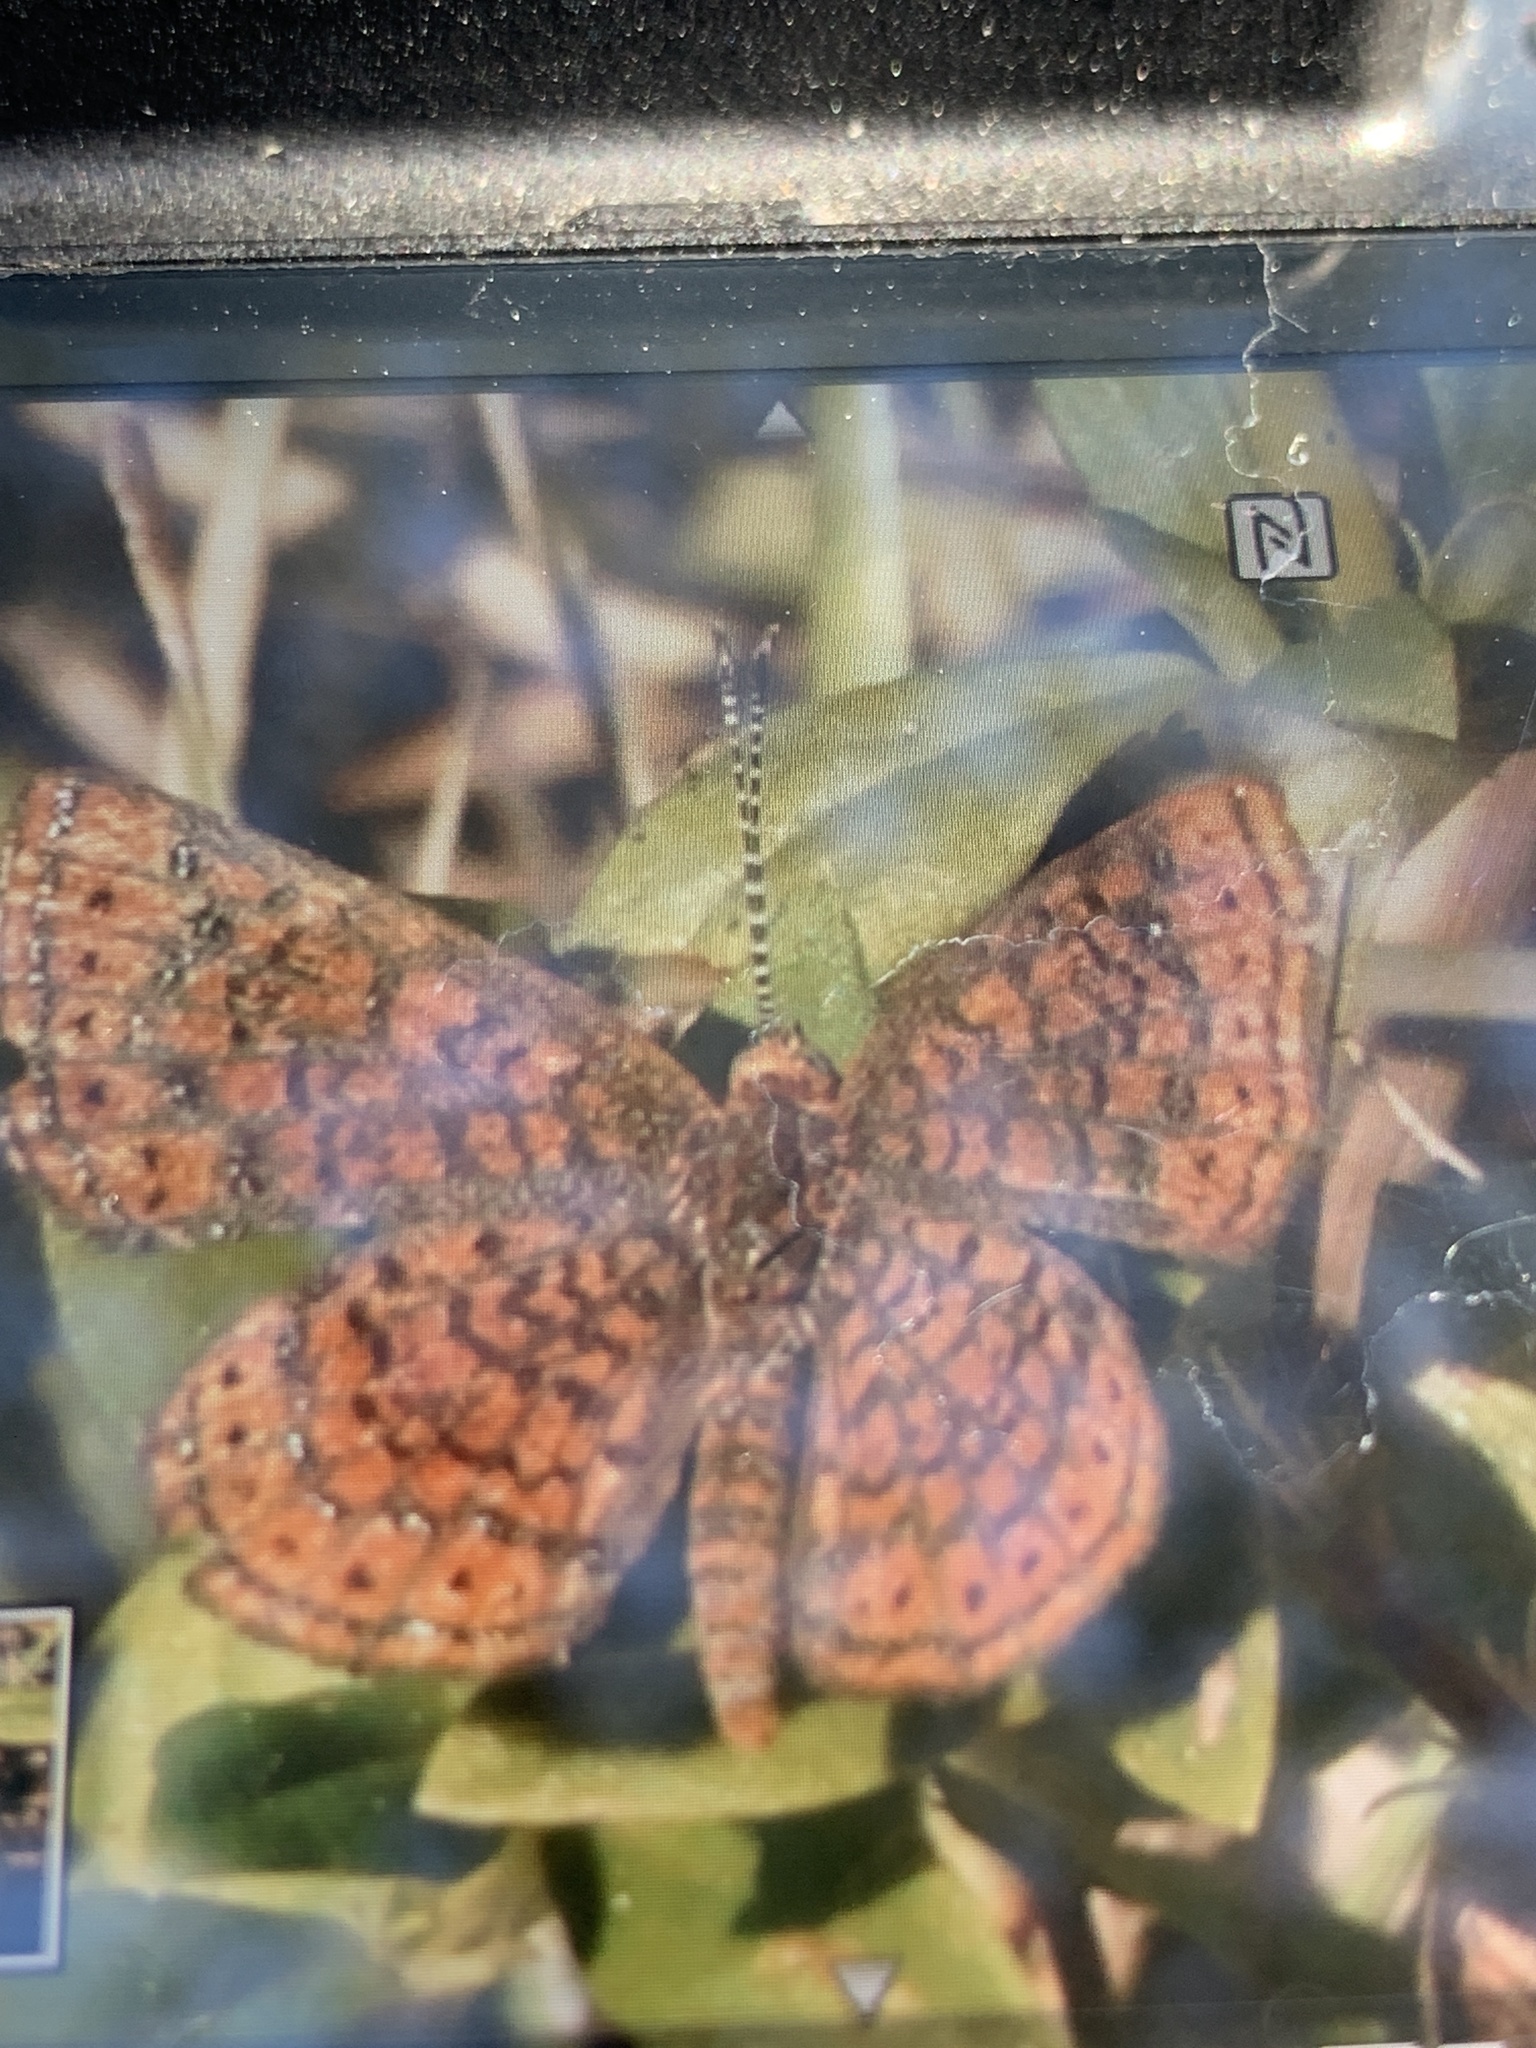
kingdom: Animalia
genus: Calephelis
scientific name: Calephelis virginiensis
